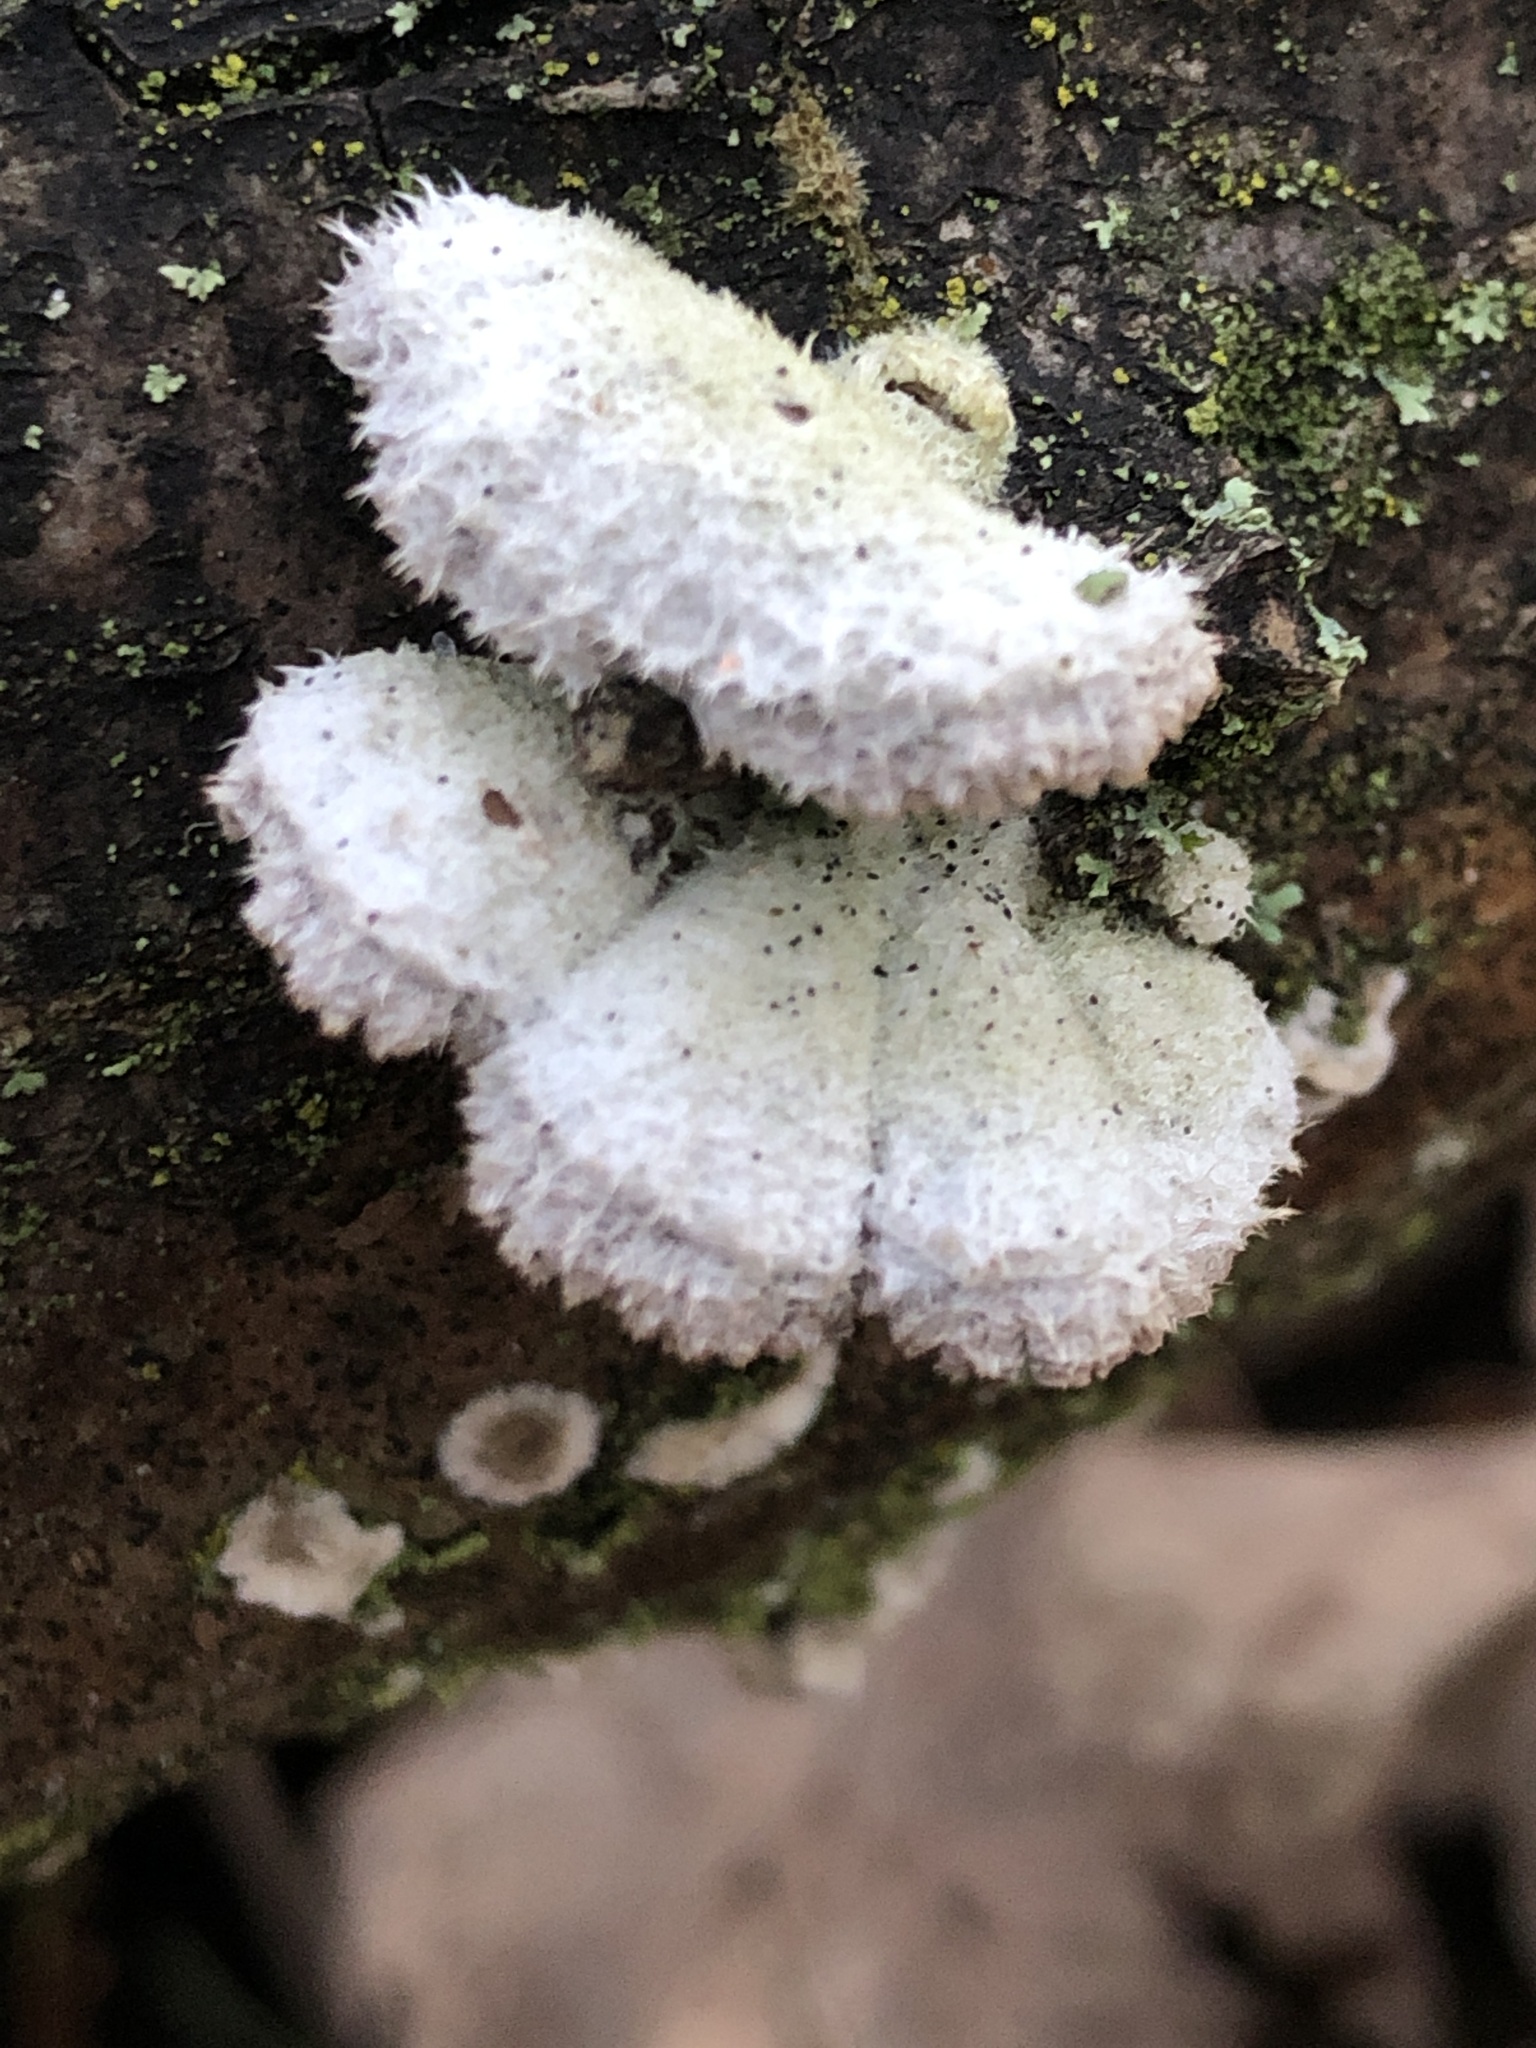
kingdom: Fungi
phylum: Basidiomycota
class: Agaricomycetes
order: Agaricales
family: Schizophyllaceae
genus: Schizophyllum
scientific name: Schizophyllum commune
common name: Common porecrust
